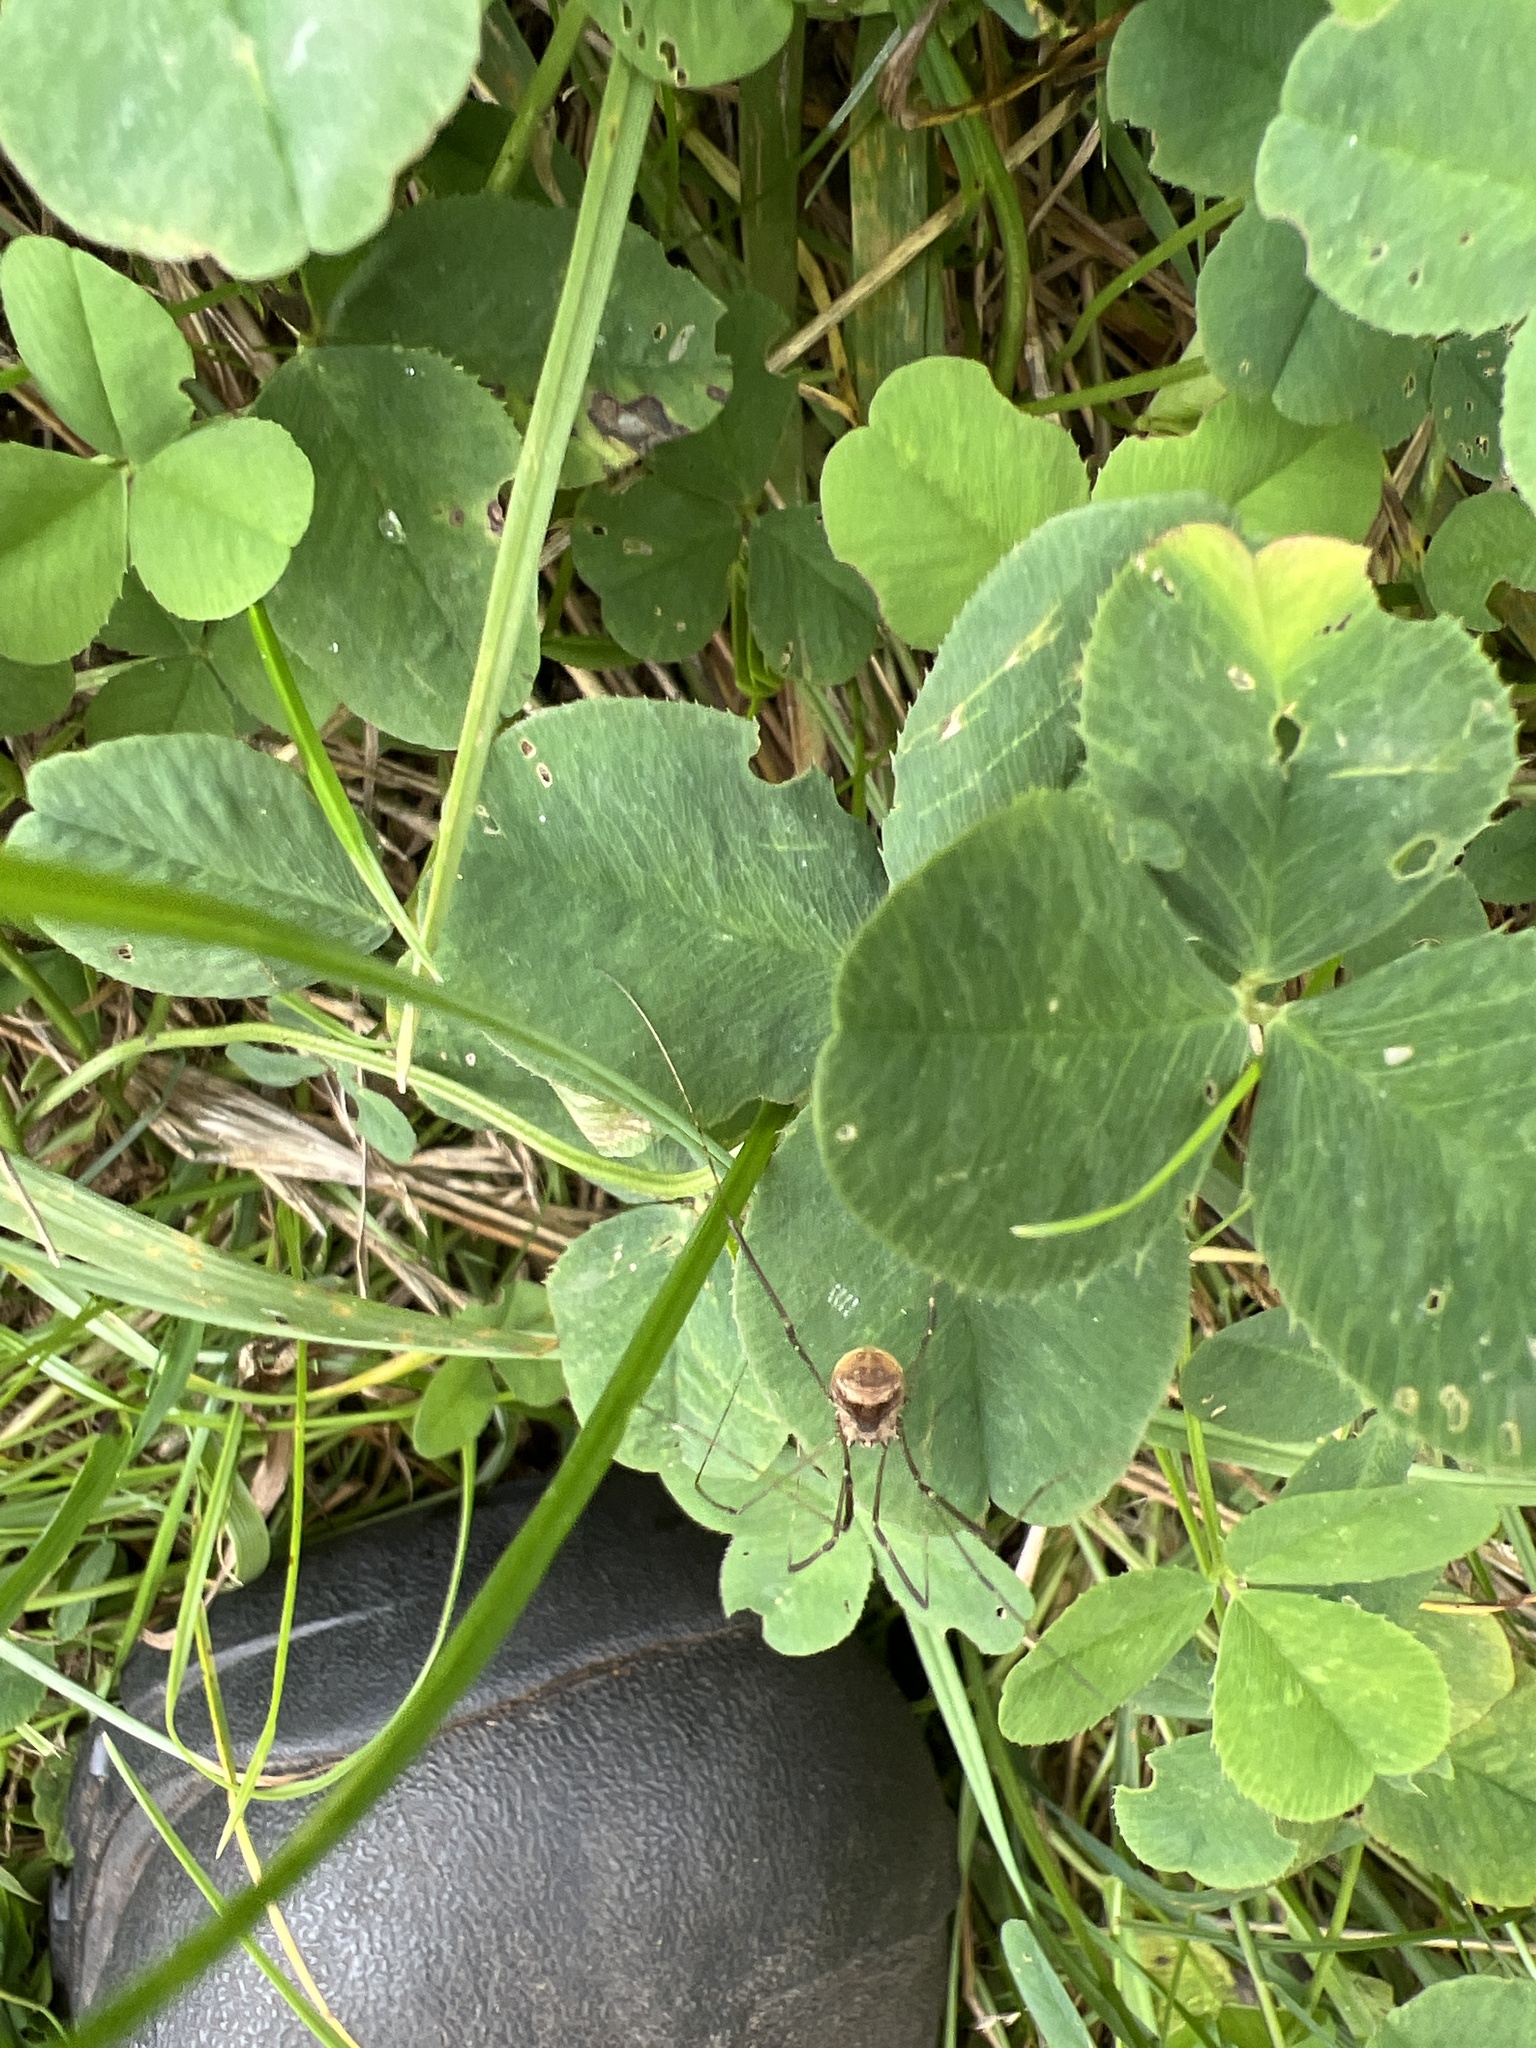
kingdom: Animalia
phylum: Arthropoda
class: Arachnida
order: Opiliones
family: Sclerosomatidae
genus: Leiobunum
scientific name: Leiobunum blackwalli
